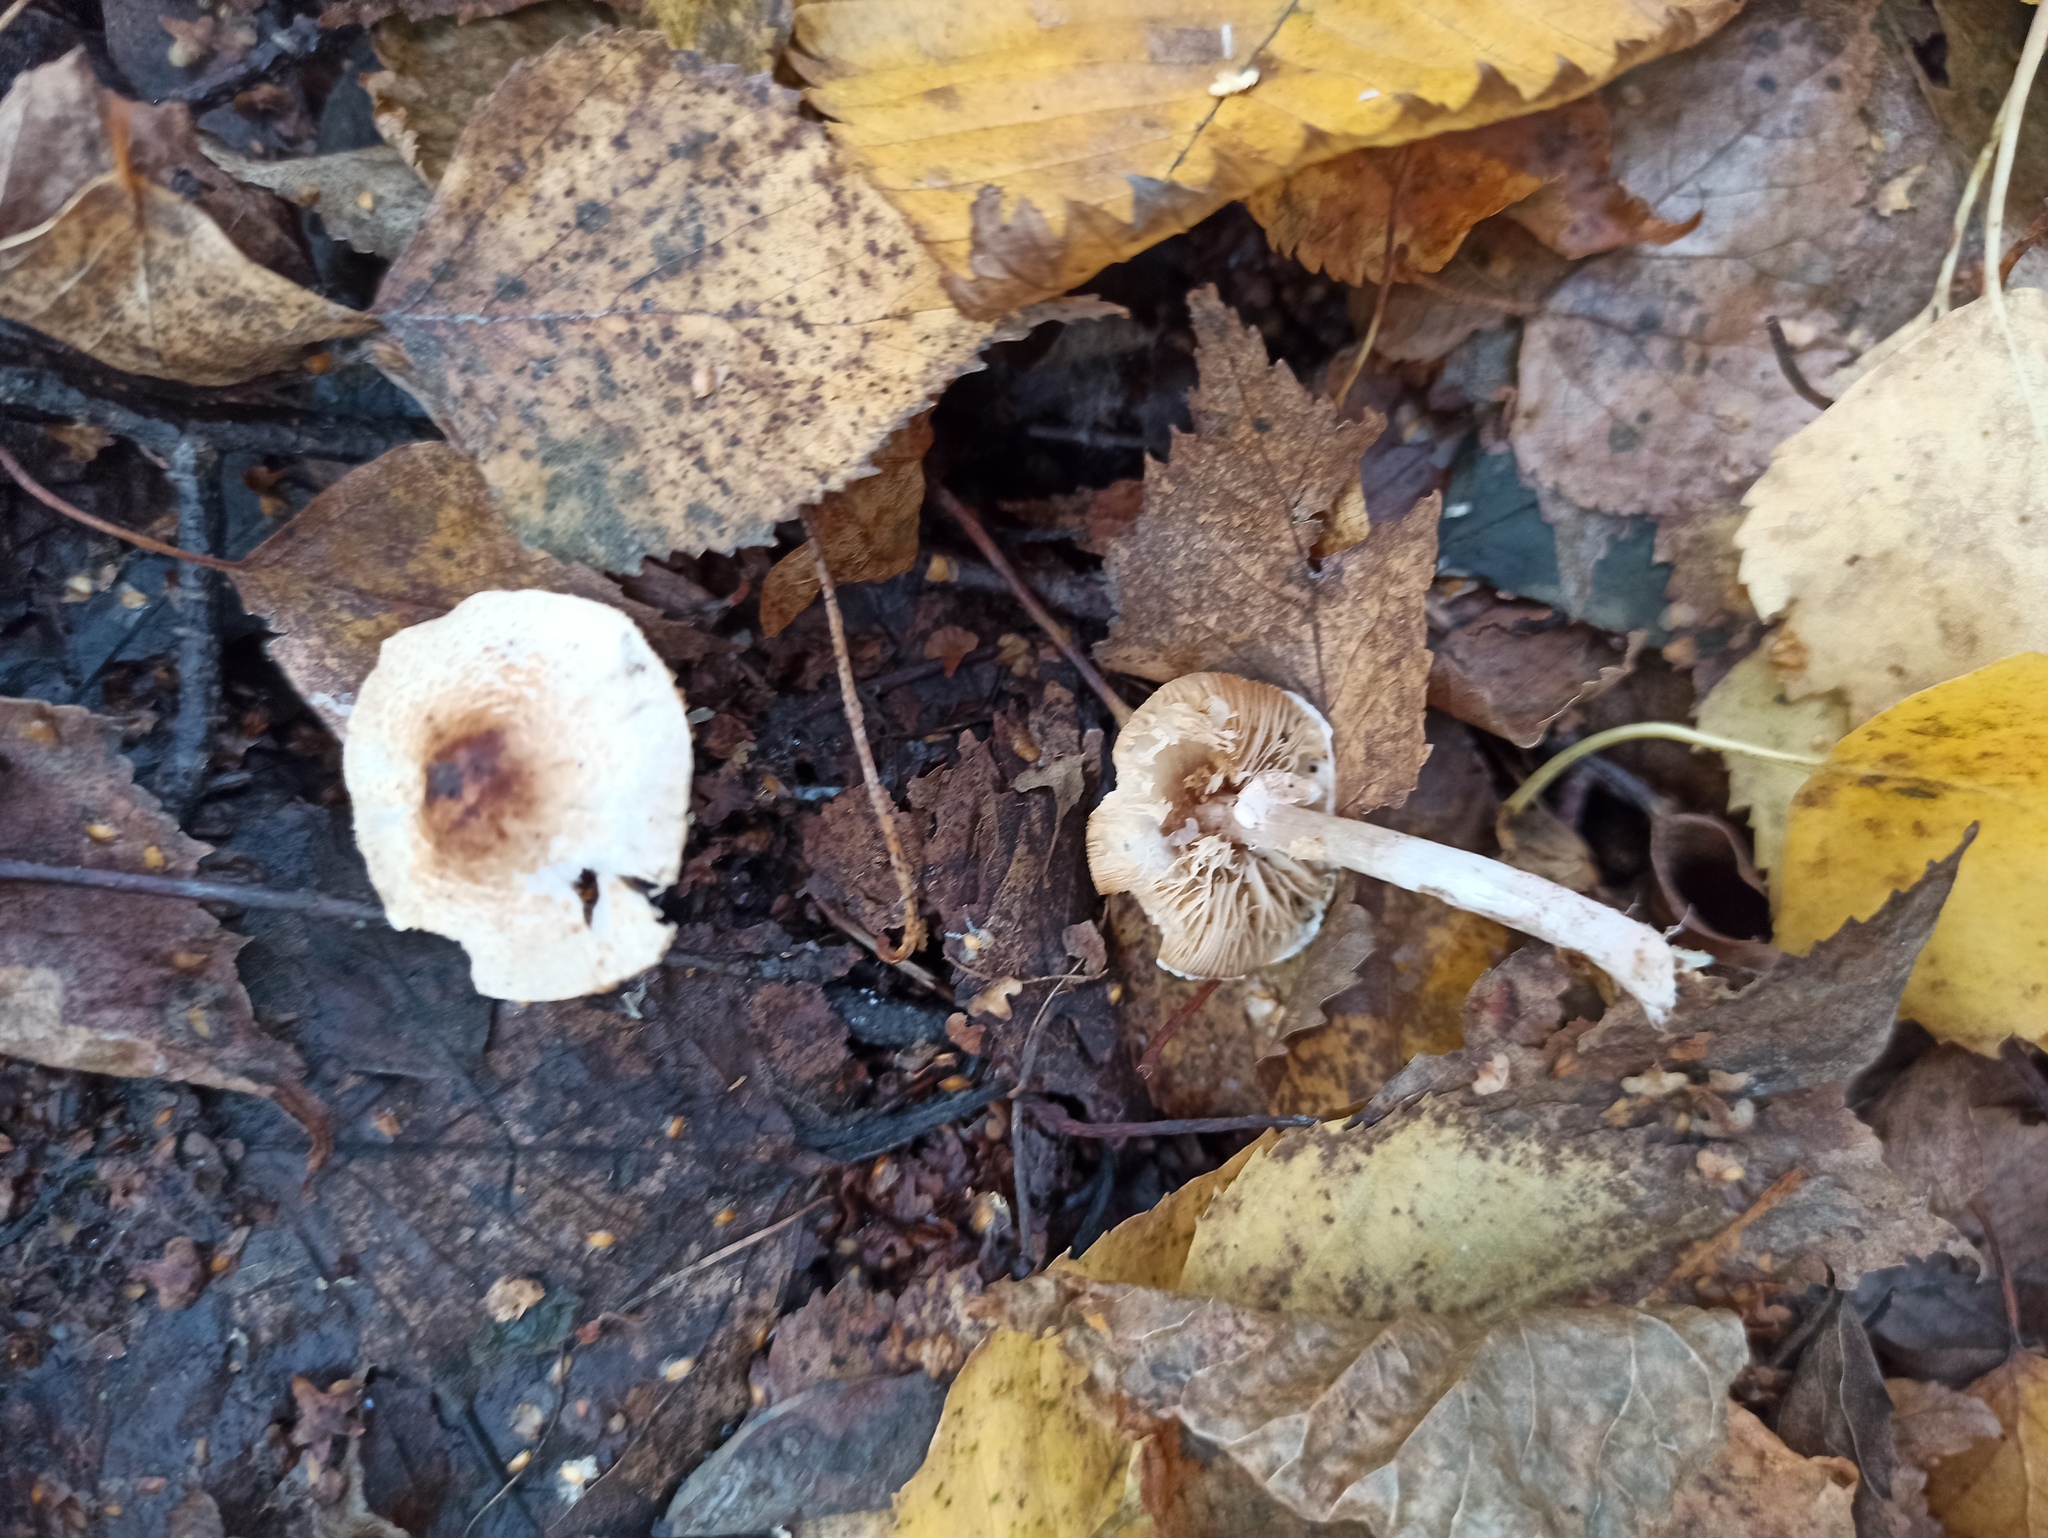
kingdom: Fungi
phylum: Basidiomycota
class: Agaricomycetes
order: Agaricales
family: Agaricaceae
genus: Lepiota
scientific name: Lepiota cristata
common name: Stinking dapperling
